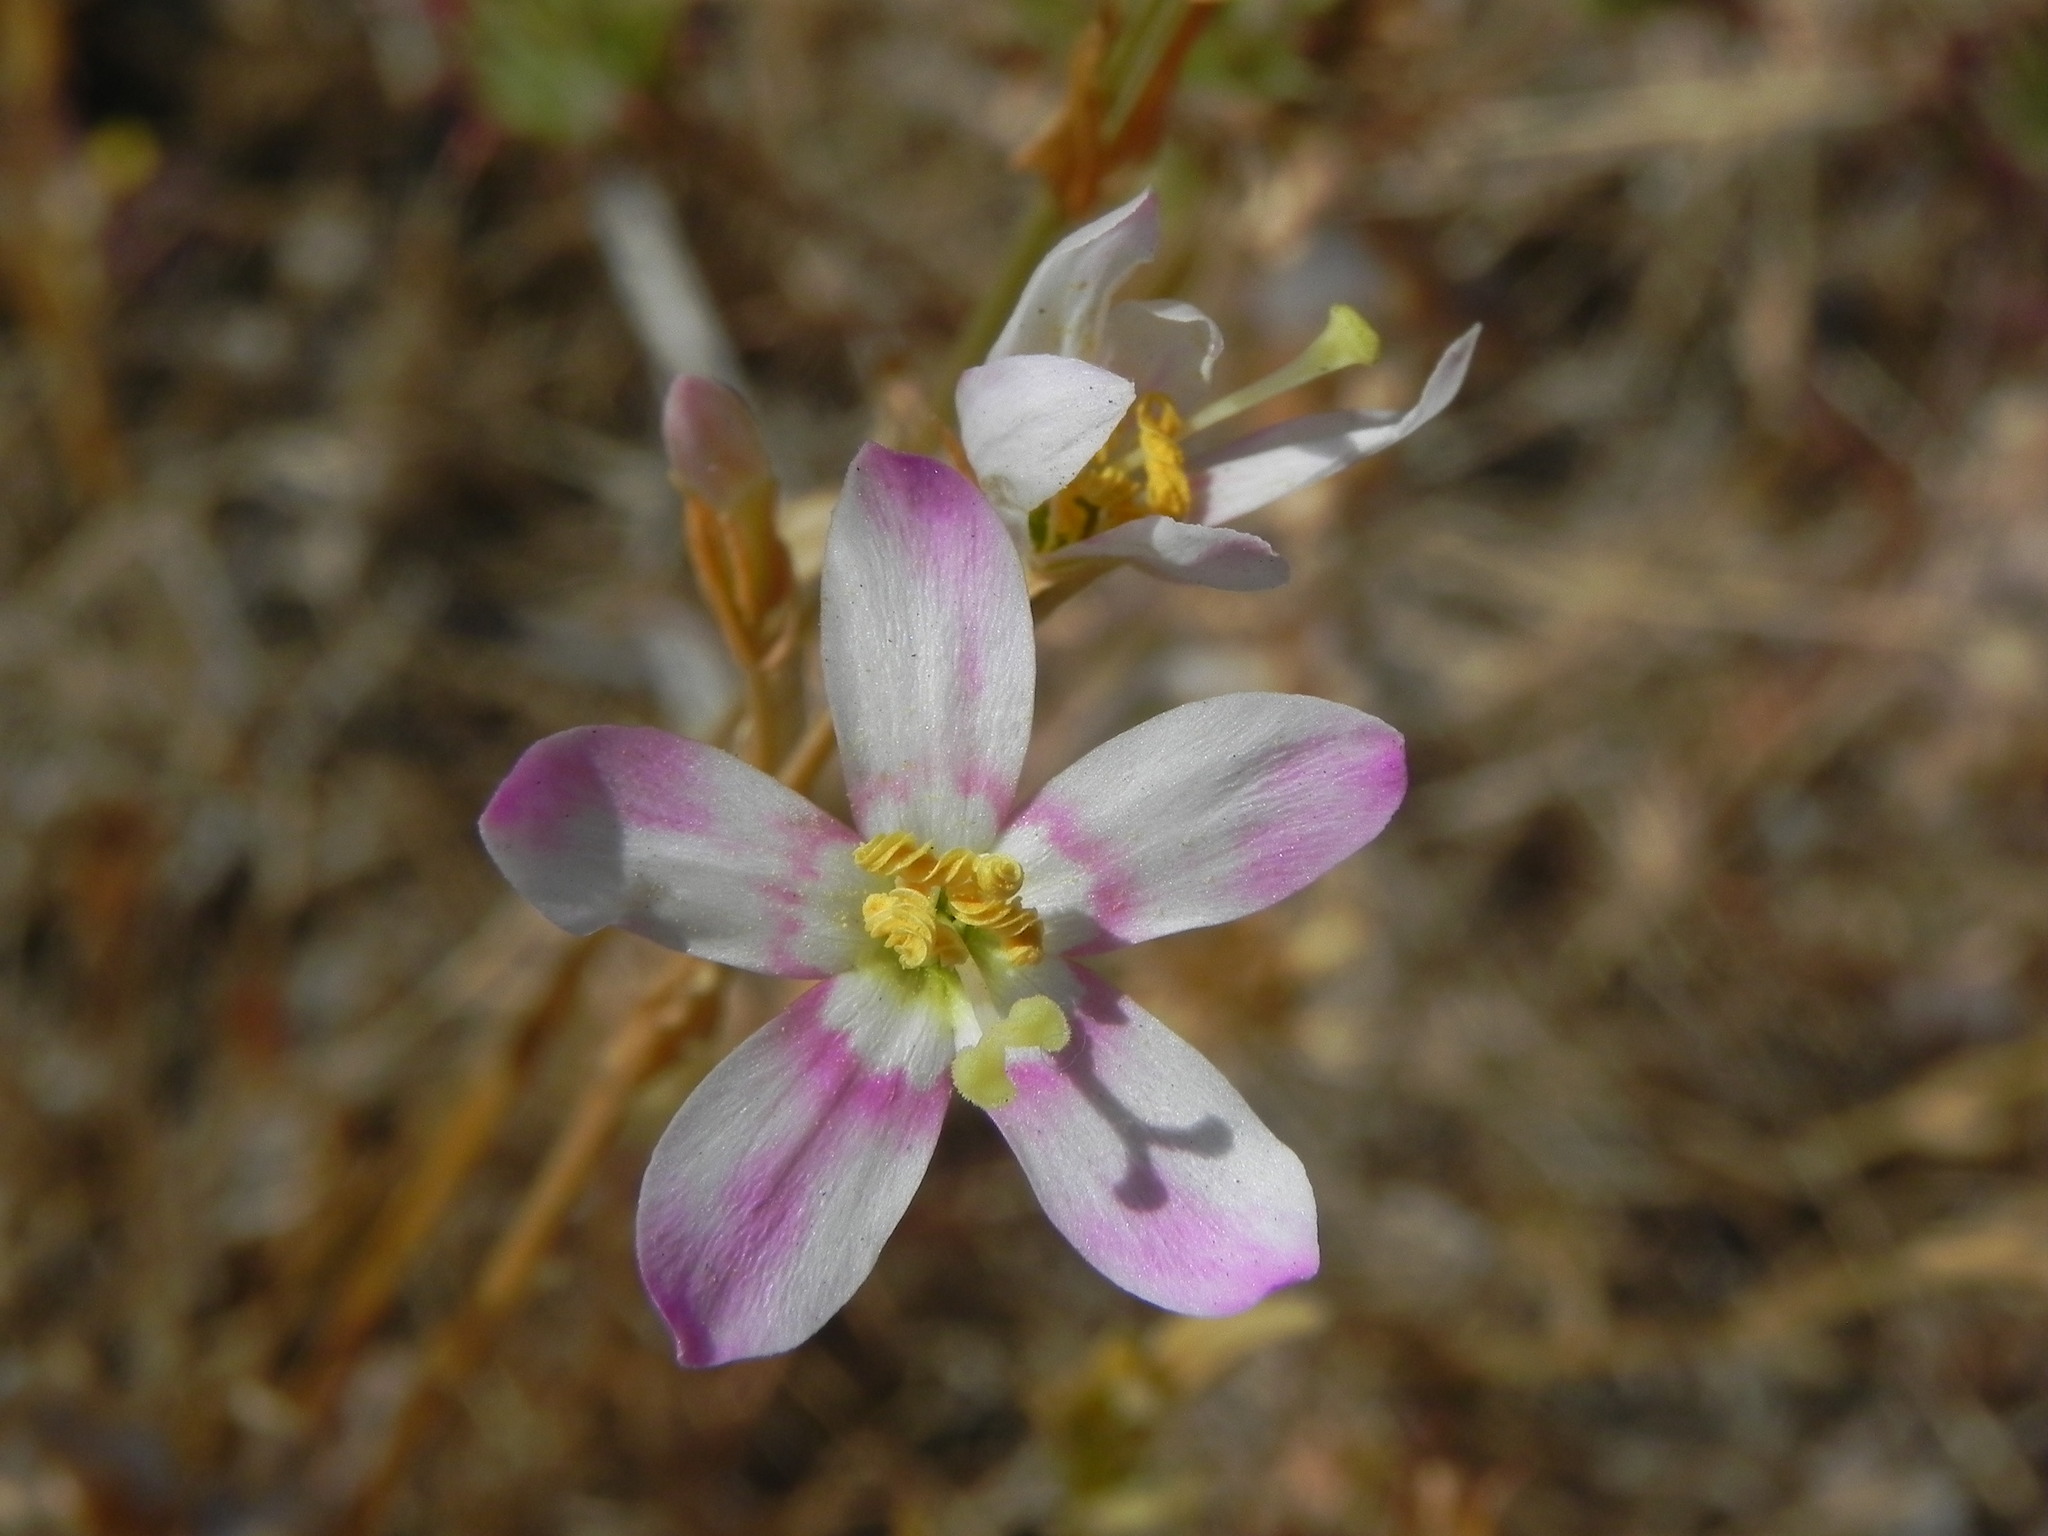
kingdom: Plantae
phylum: Tracheophyta
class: Magnoliopsida
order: Gentianales
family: Gentianaceae
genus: Zeltnera
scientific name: Zeltnera venusta
